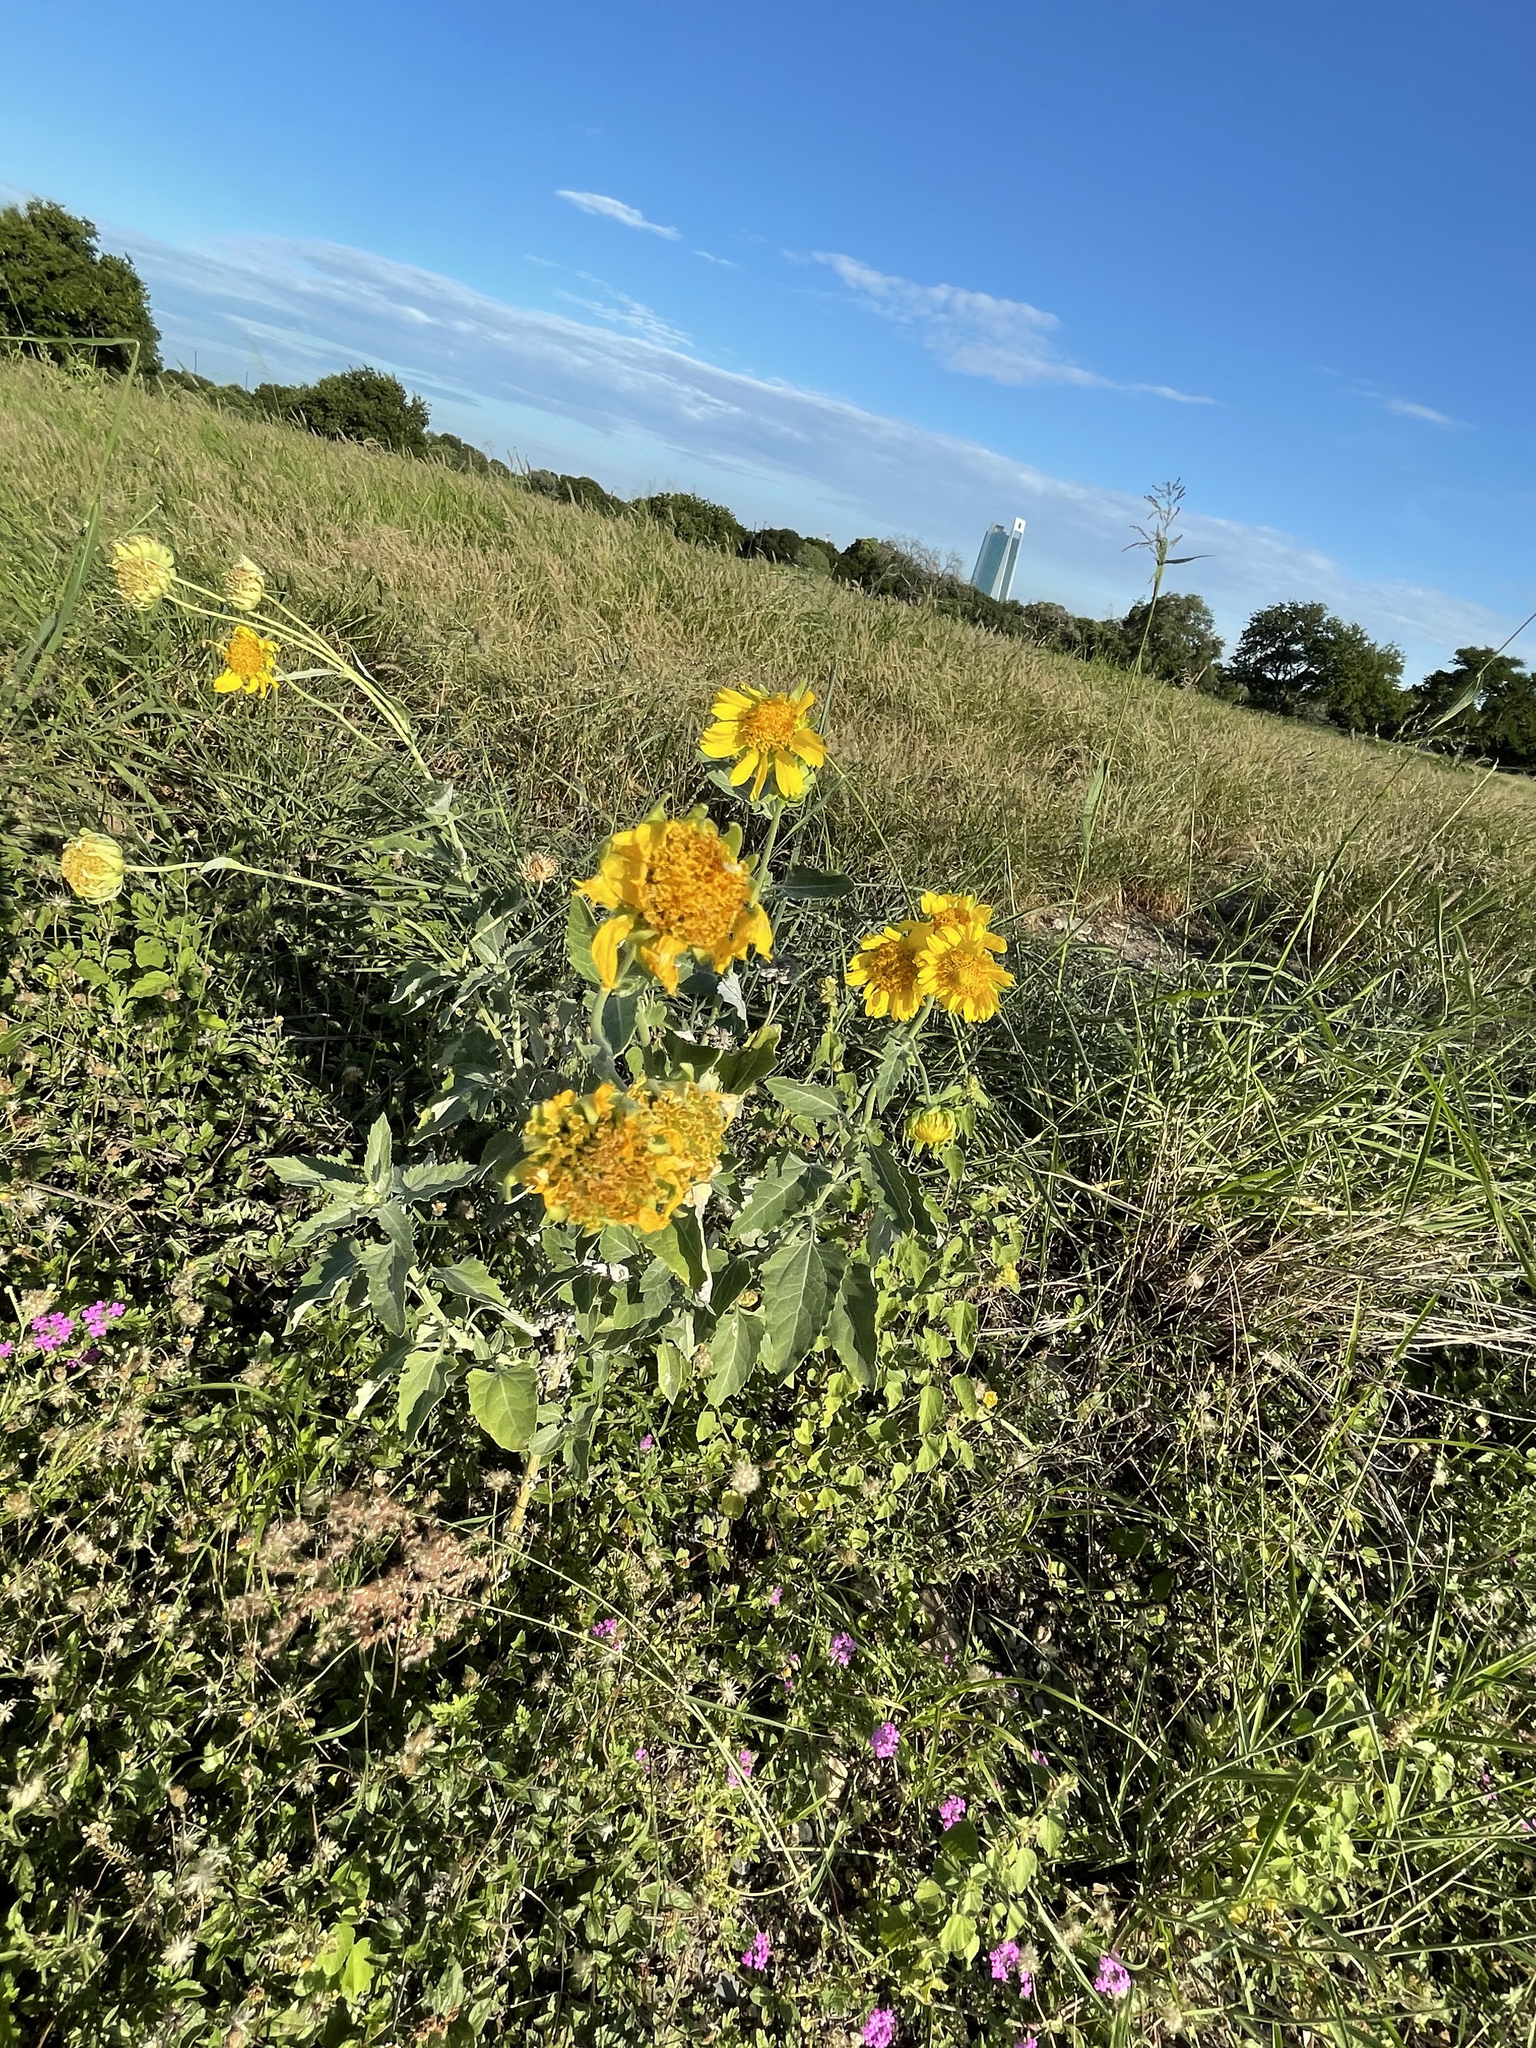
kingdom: Plantae
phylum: Tracheophyta
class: Magnoliopsida
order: Asterales
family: Asteraceae
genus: Verbesina
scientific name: Verbesina encelioides
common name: Golden crownbeard
